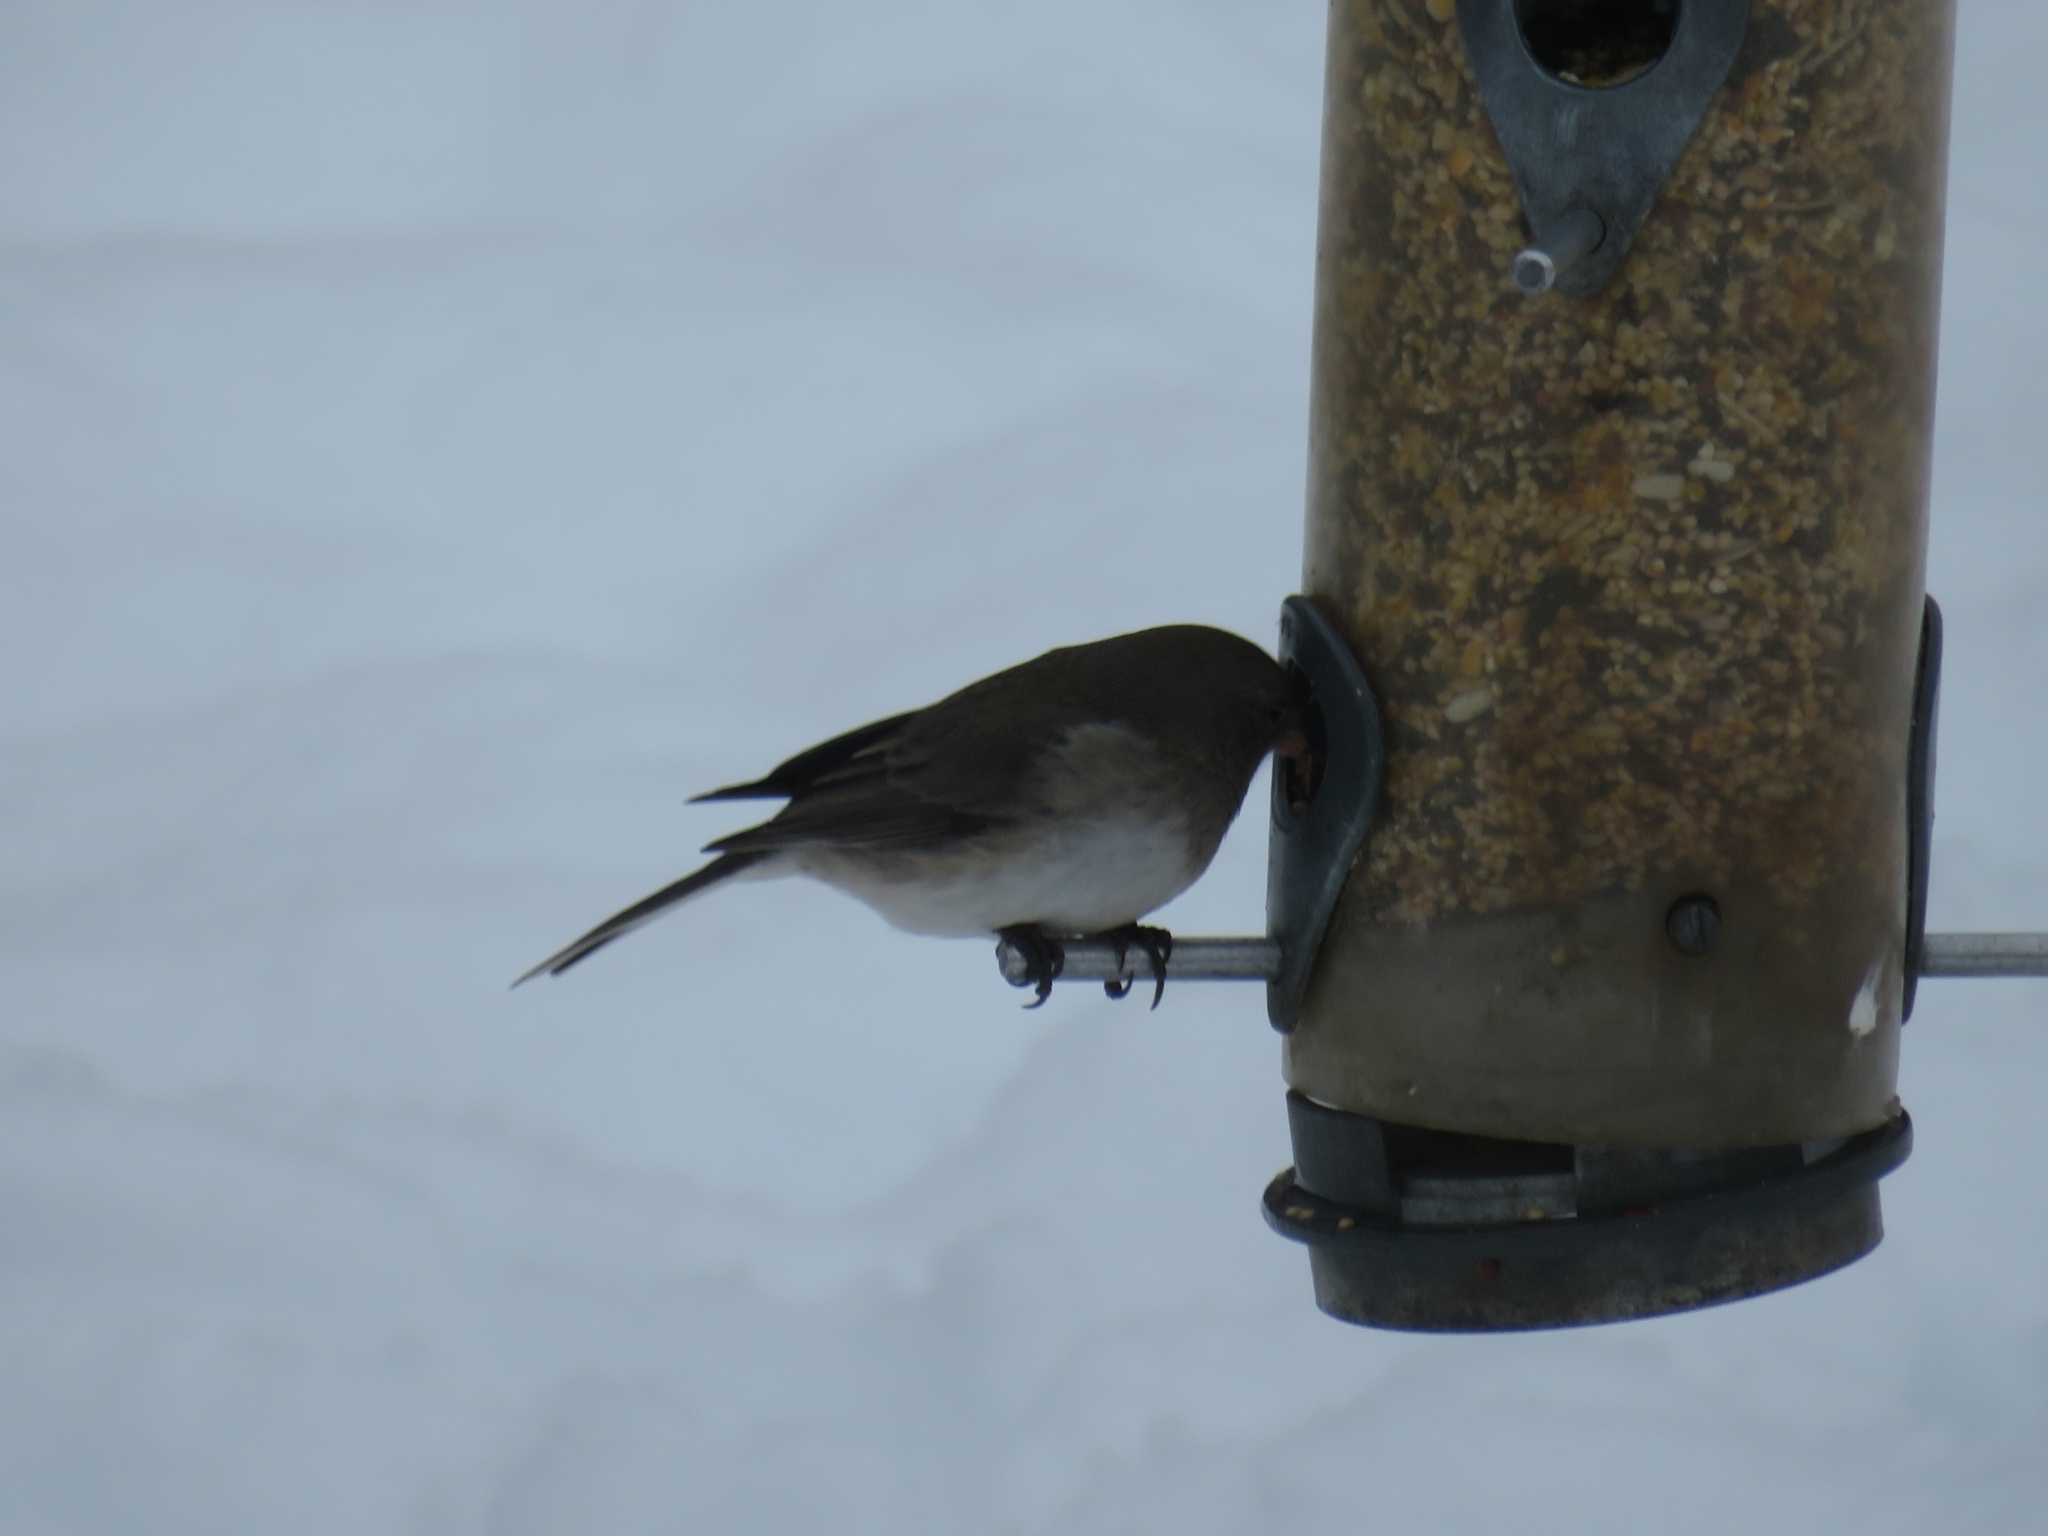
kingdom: Animalia
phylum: Chordata
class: Aves
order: Passeriformes
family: Passerellidae
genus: Junco
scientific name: Junco hyemalis
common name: Dark-eyed junco
